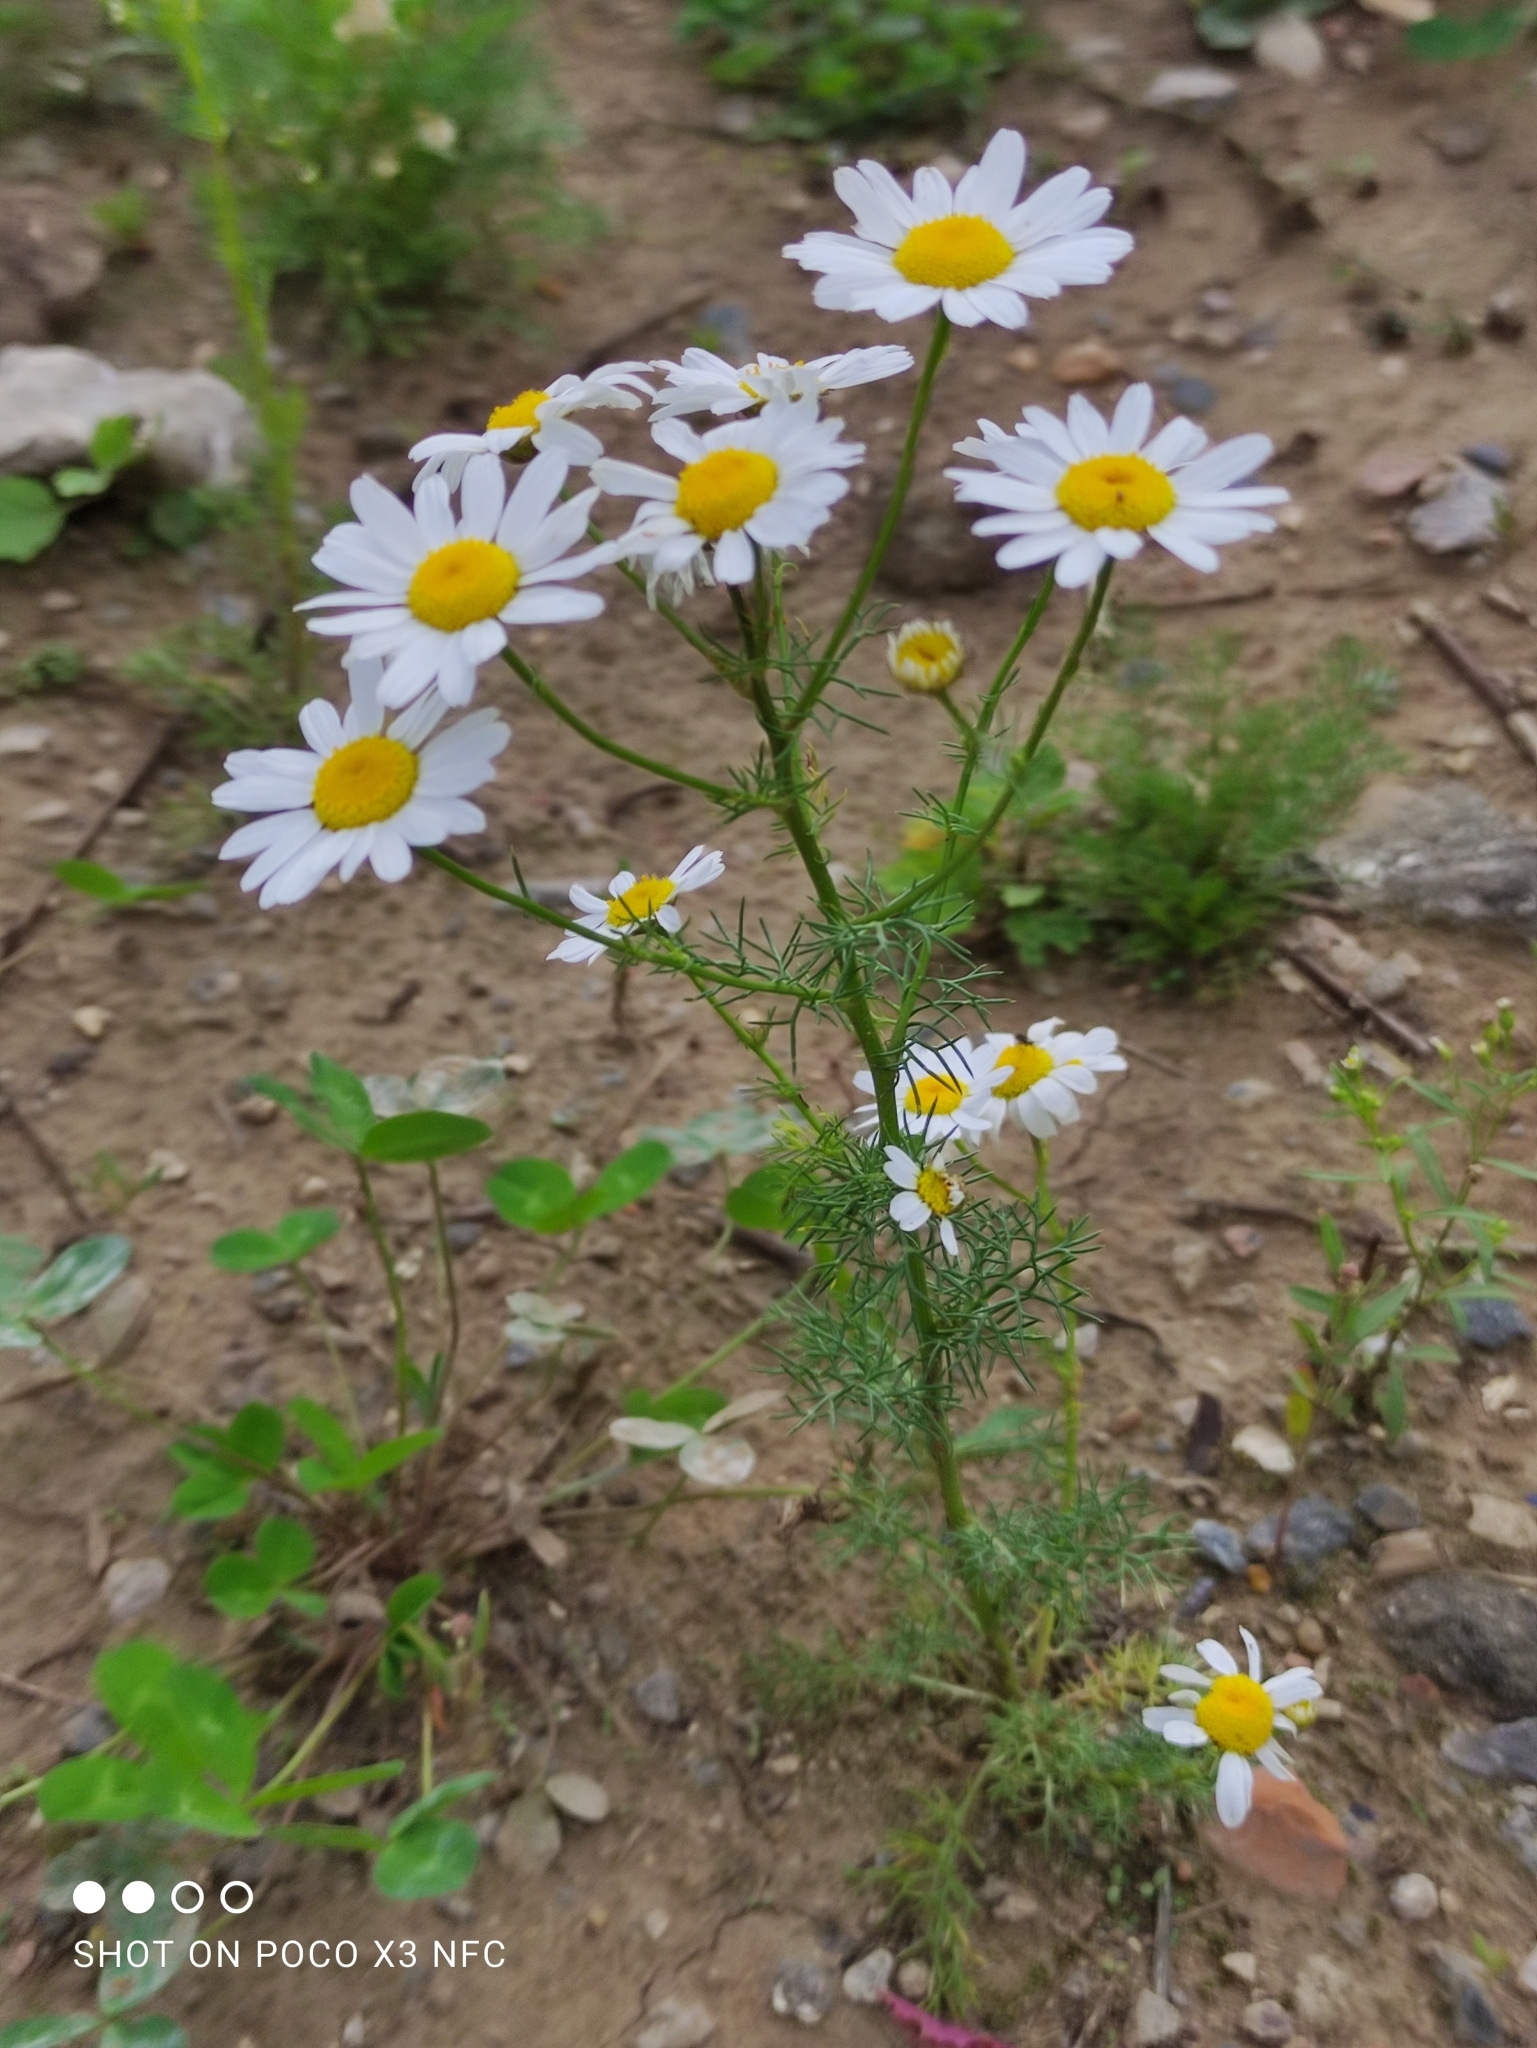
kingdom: Plantae
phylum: Tracheophyta
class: Magnoliopsida
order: Asterales
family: Asteraceae
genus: Tripleurospermum
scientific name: Tripleurospermum inodorum
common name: Scentless mayweed
